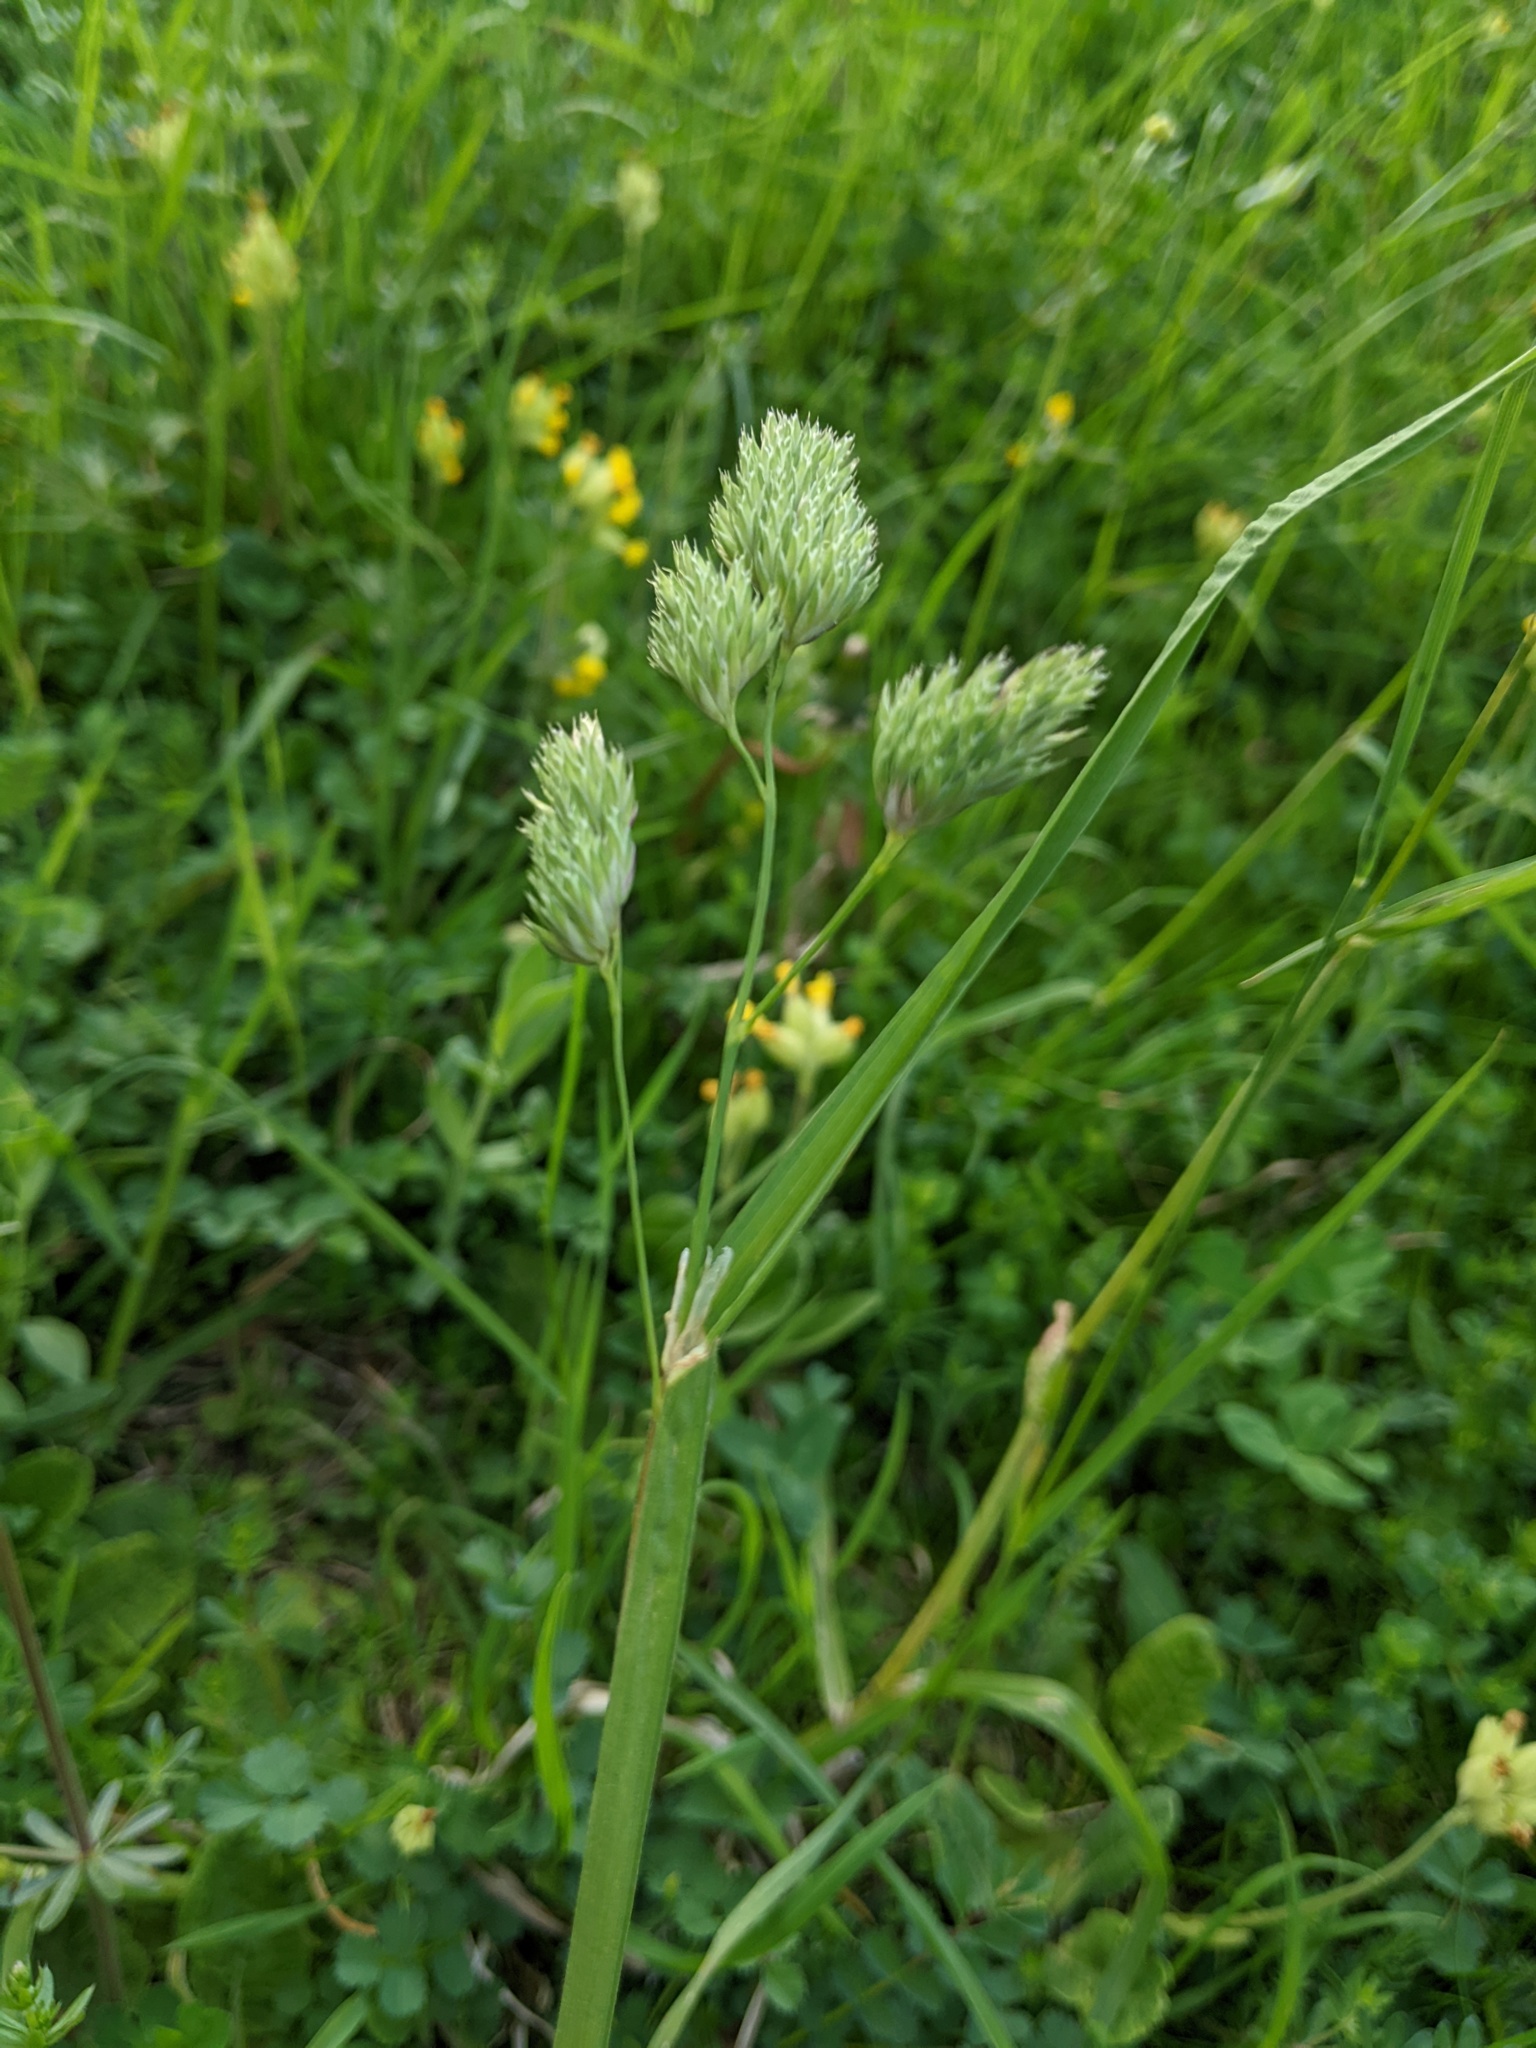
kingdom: Plantae
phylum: Tracheophyta
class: Liliopsida
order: Poales
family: Poaceae
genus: Dactylis
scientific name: Dactylis glomerata
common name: Orchardgrass
